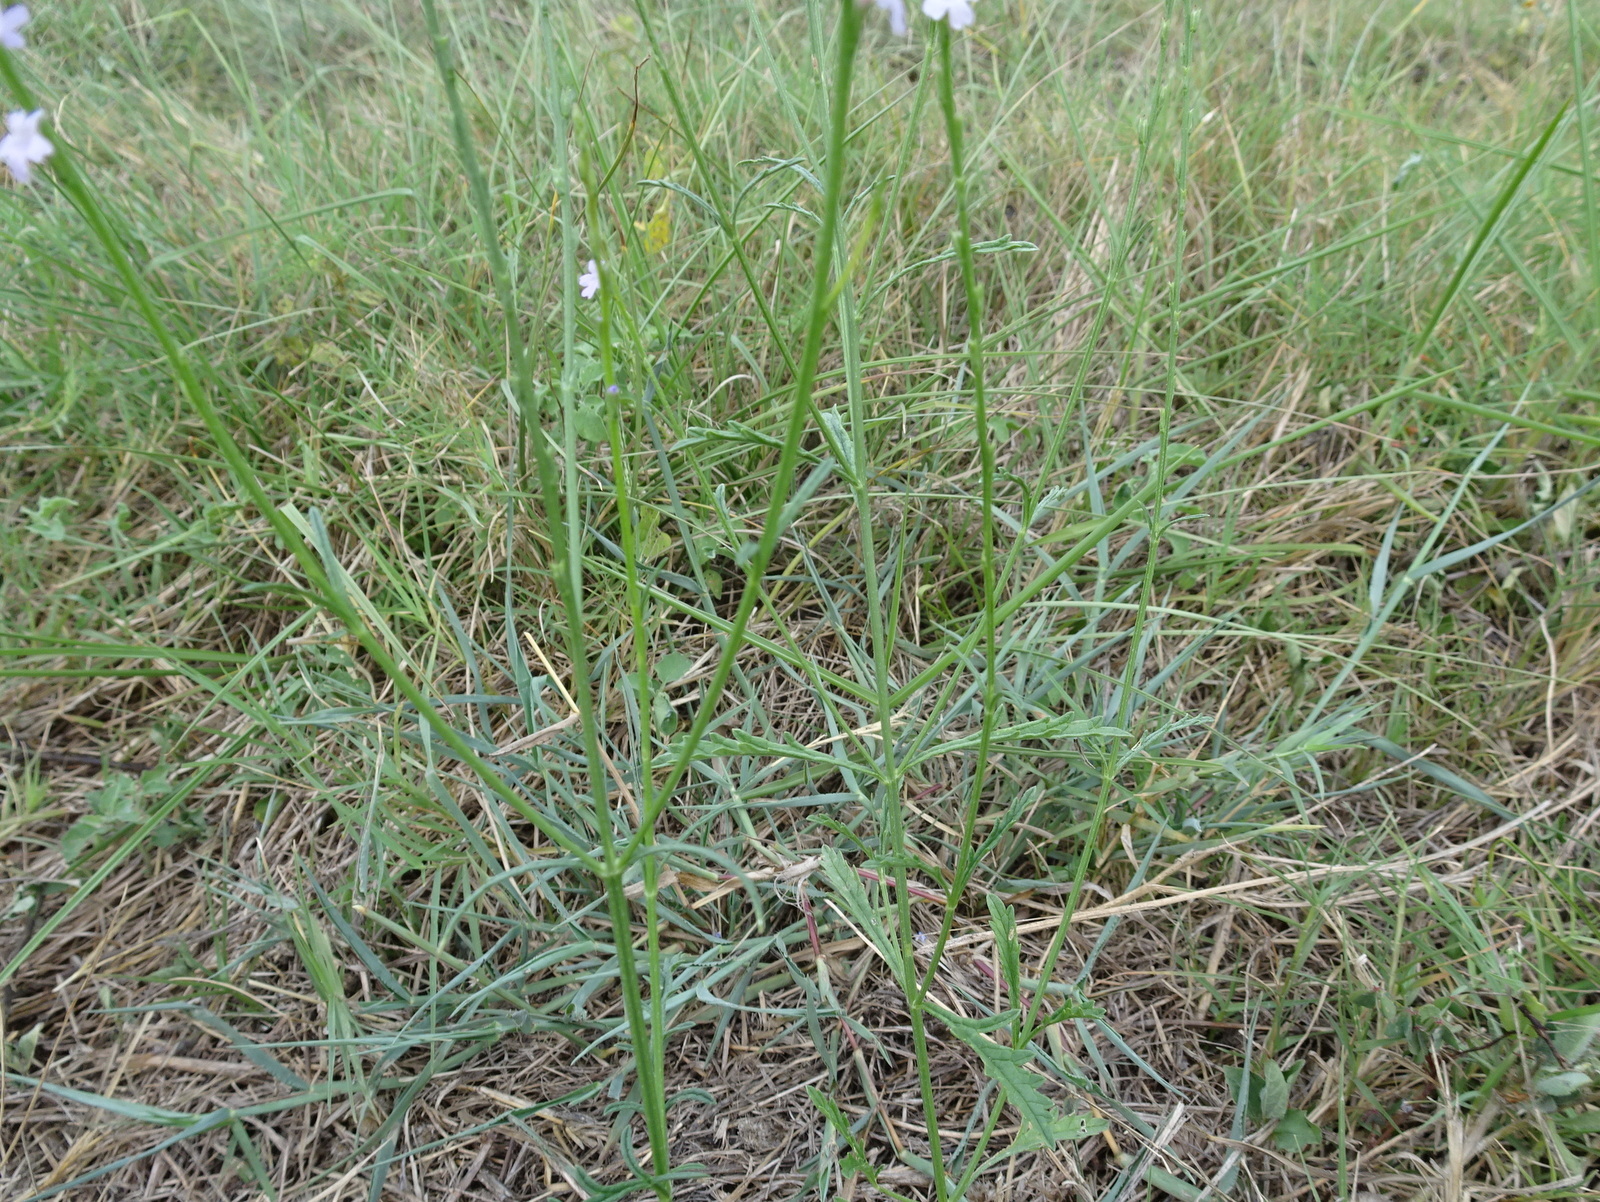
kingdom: Plantae
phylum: Tracheophyta
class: Magnoliopsida
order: Lamiales
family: Verbenaceae
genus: Verbena
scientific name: Verbena halei
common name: Texas vervain
